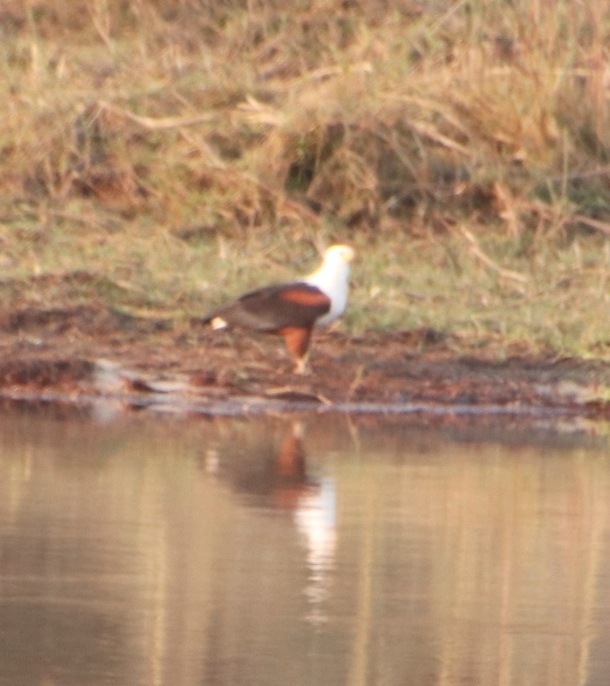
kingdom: Animalia
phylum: Chordata
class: Aves
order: Accipitriformes
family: Accipitridae
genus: Haliaeetus
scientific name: Haliaeetus vocifer
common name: African fish eagle
